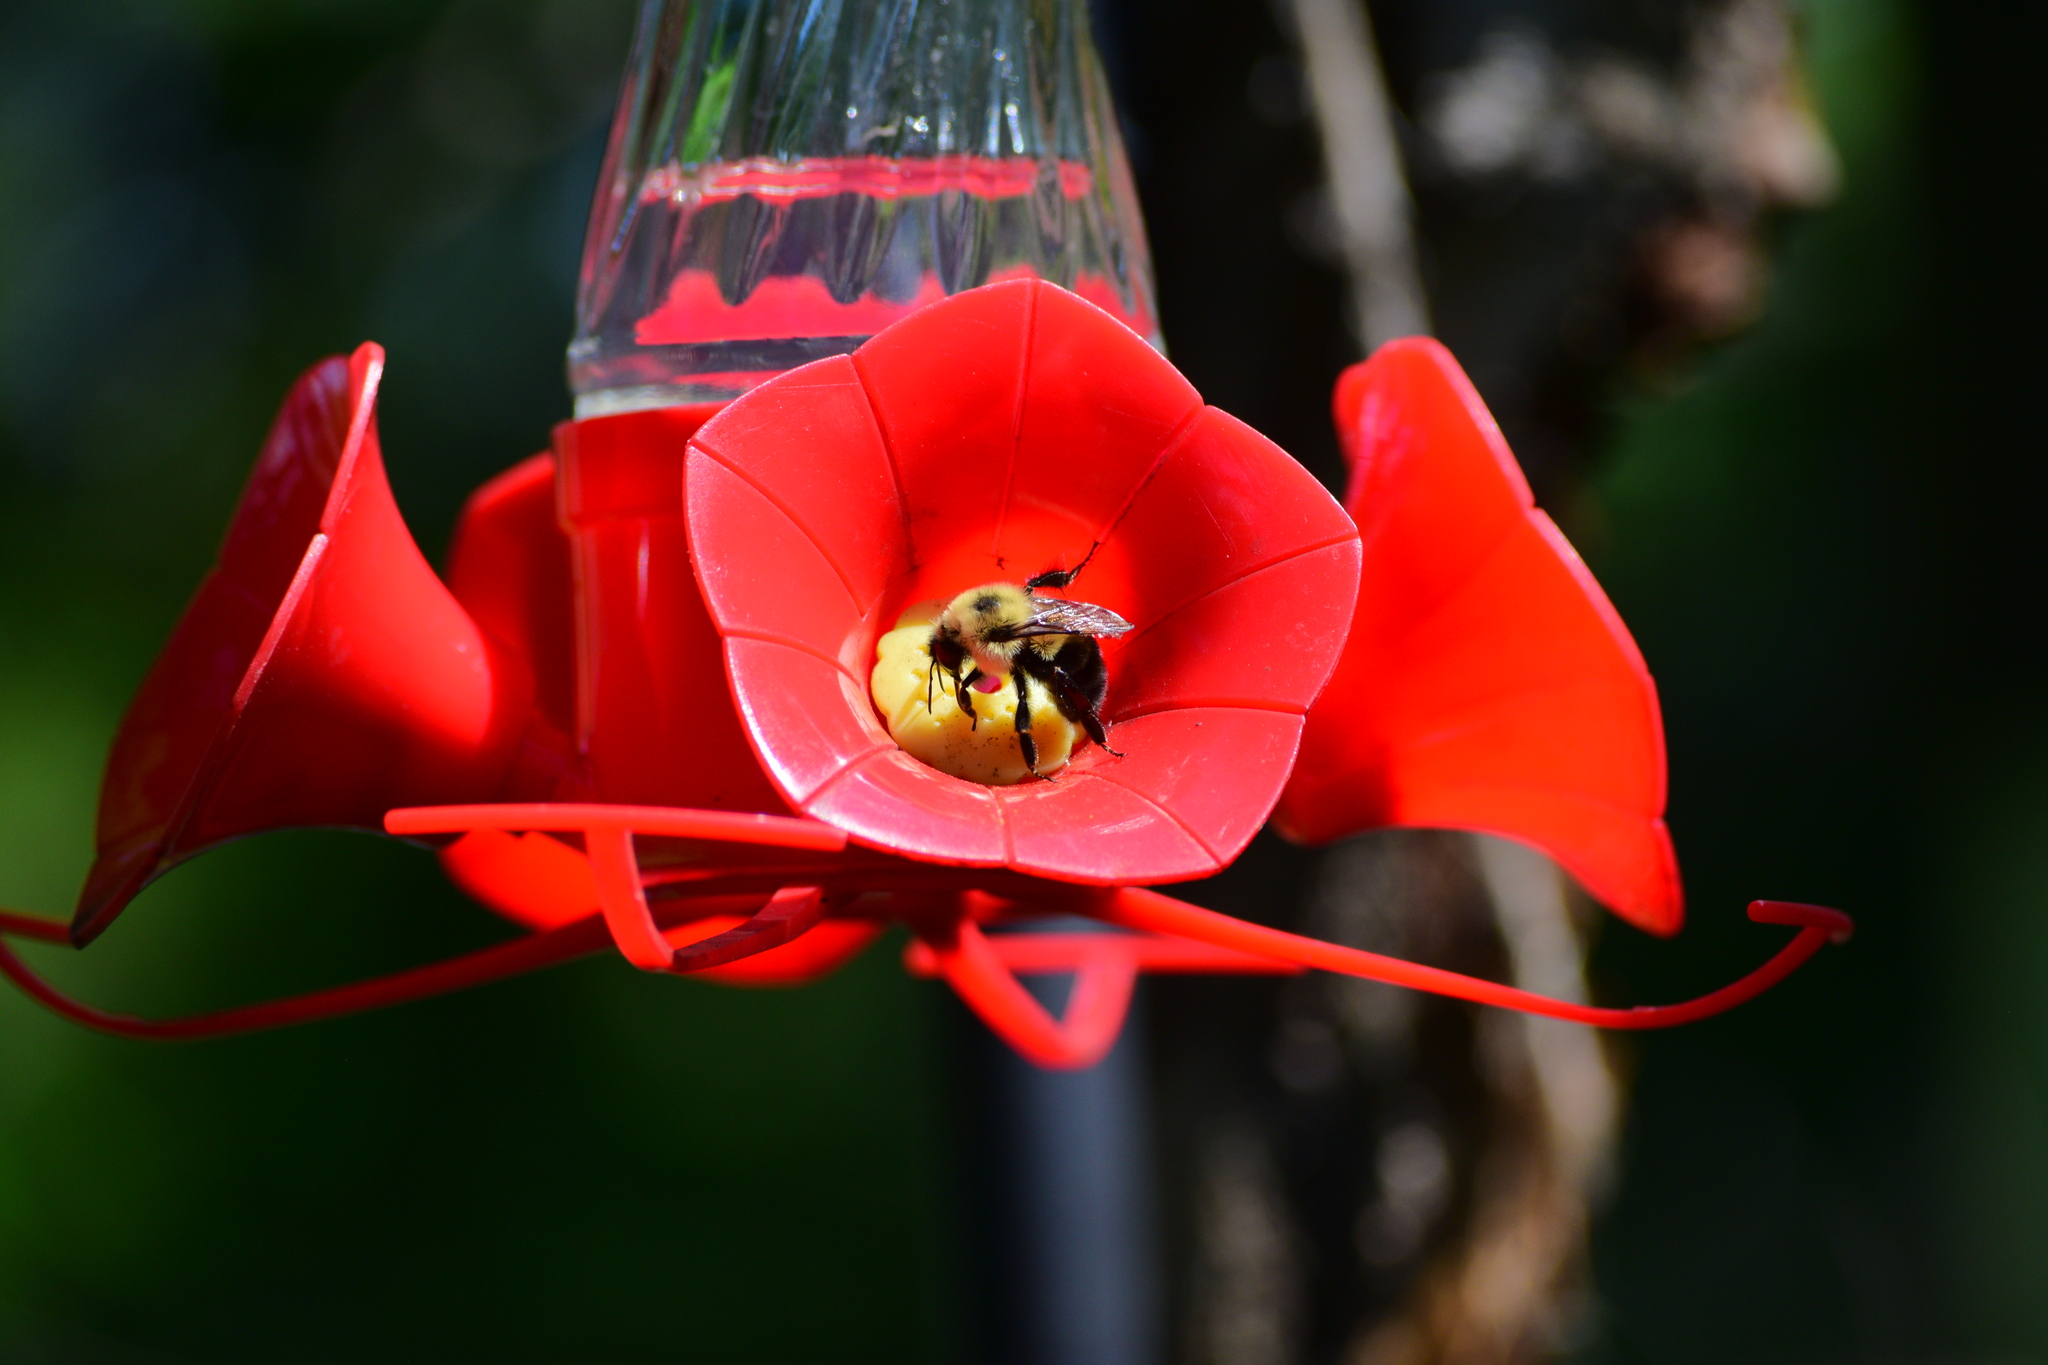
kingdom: Animalia
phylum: Arthropoda
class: Insecta
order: Hymenoptera
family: Apidae
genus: Bombus
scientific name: Bombus bimaculatus
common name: Two-spotted bumble bee
